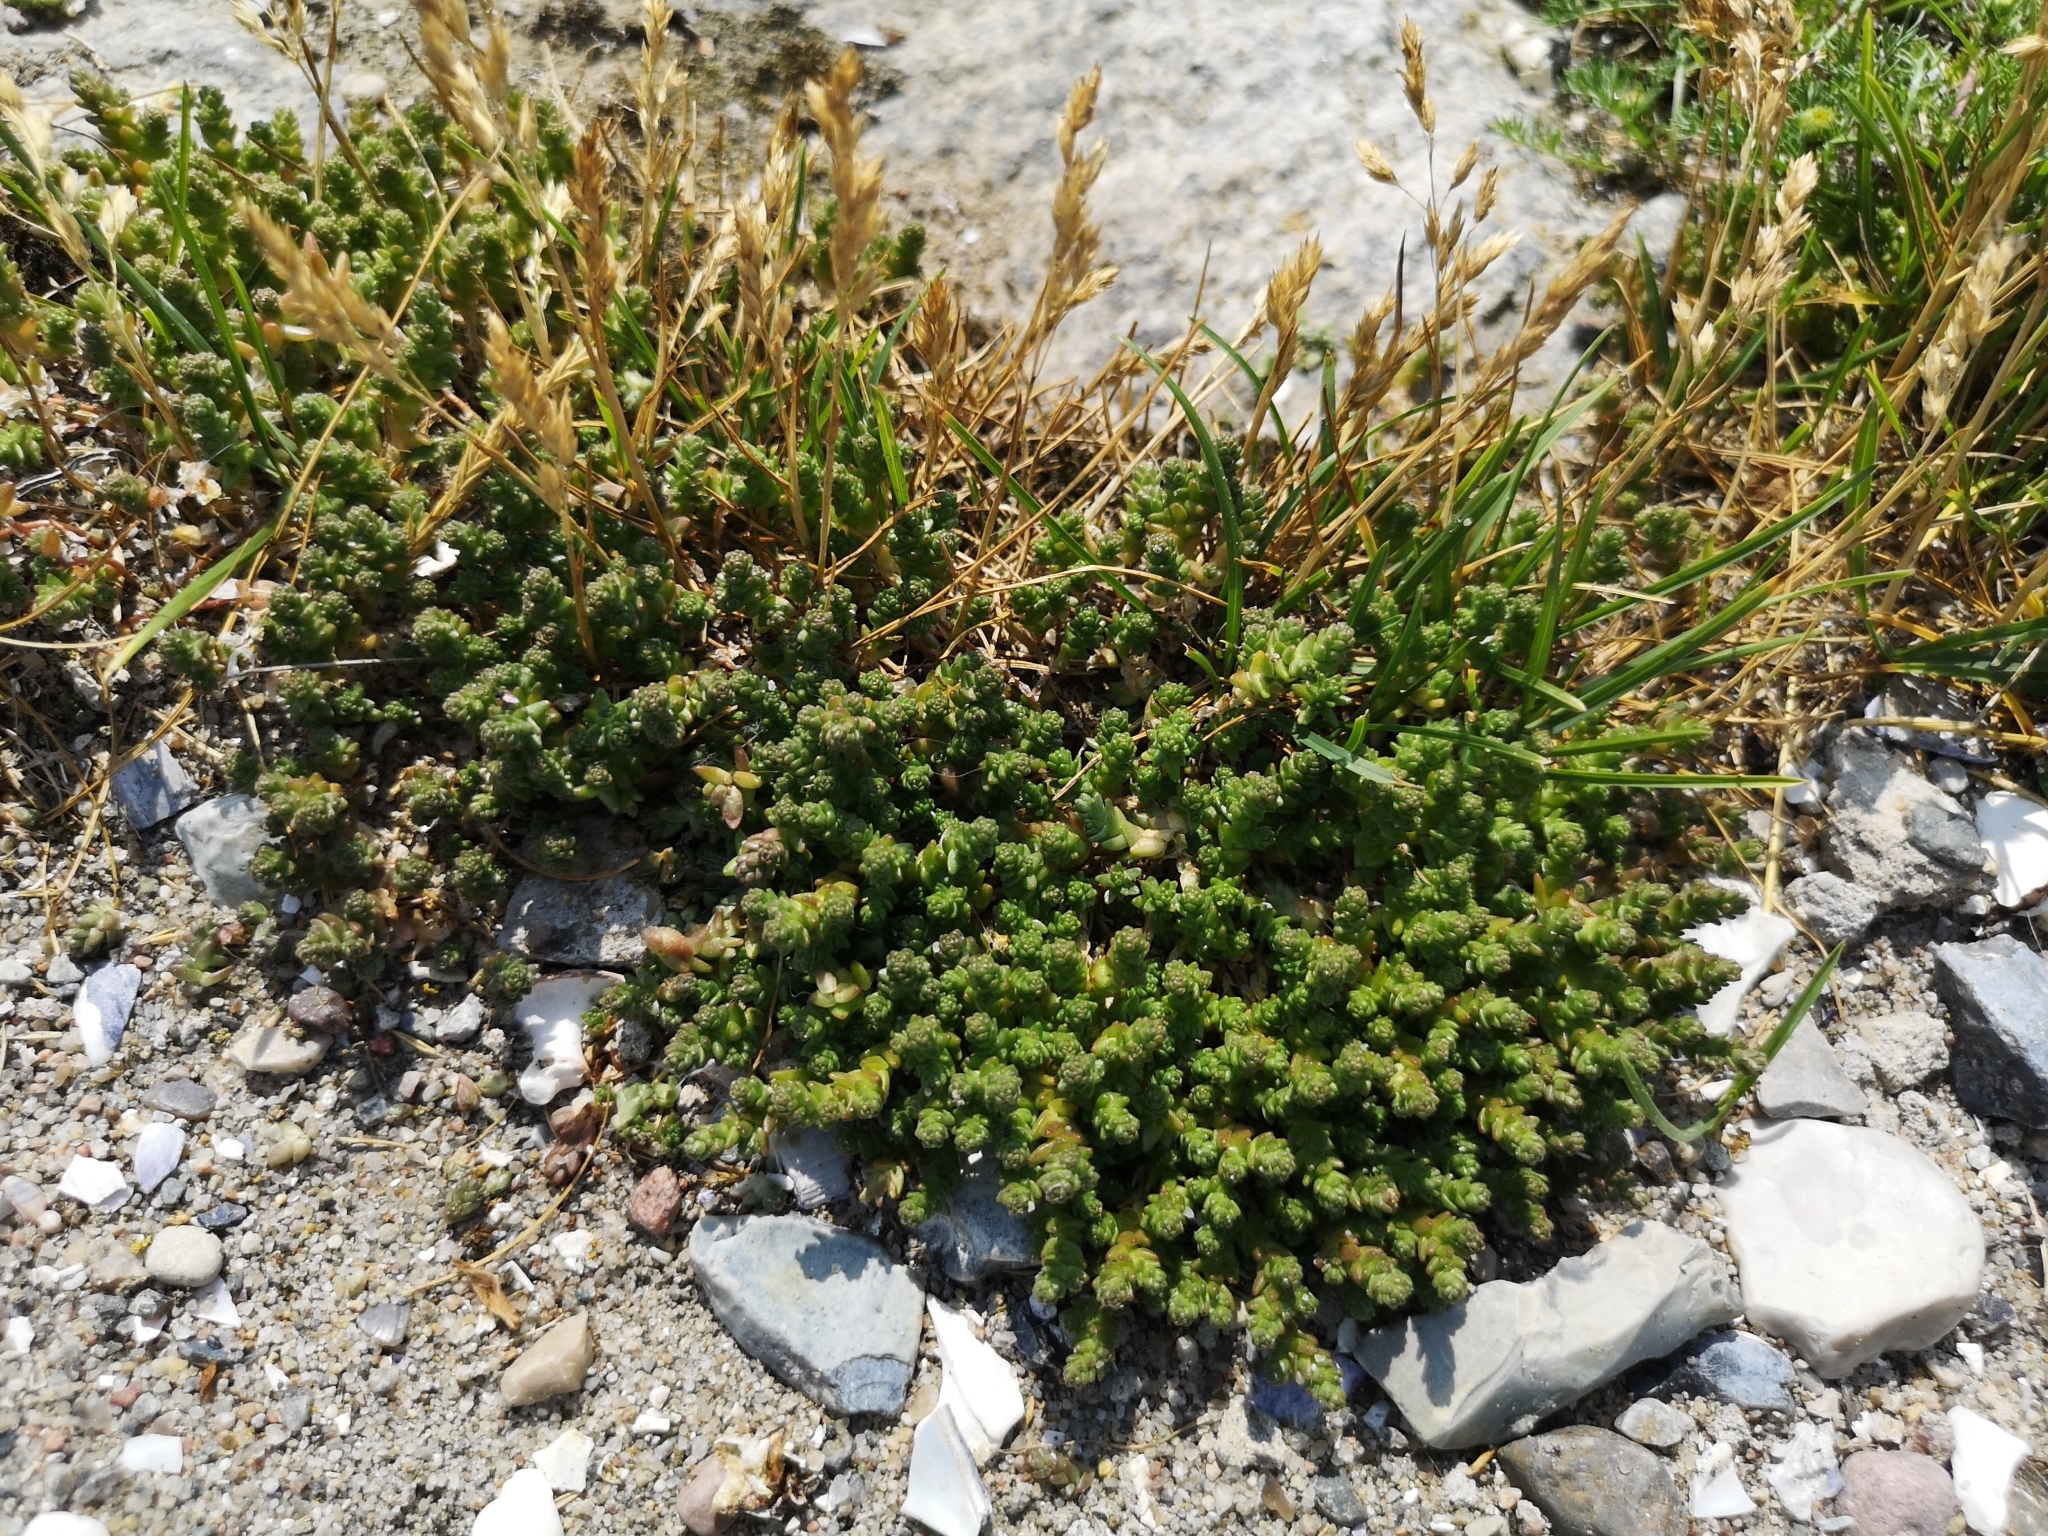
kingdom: Plantae
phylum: Tracheophyta
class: Magnoliopsida
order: Saxifragales
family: Crassulaceae
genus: Sedum
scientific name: Sedum acre
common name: Biting stonecrop
